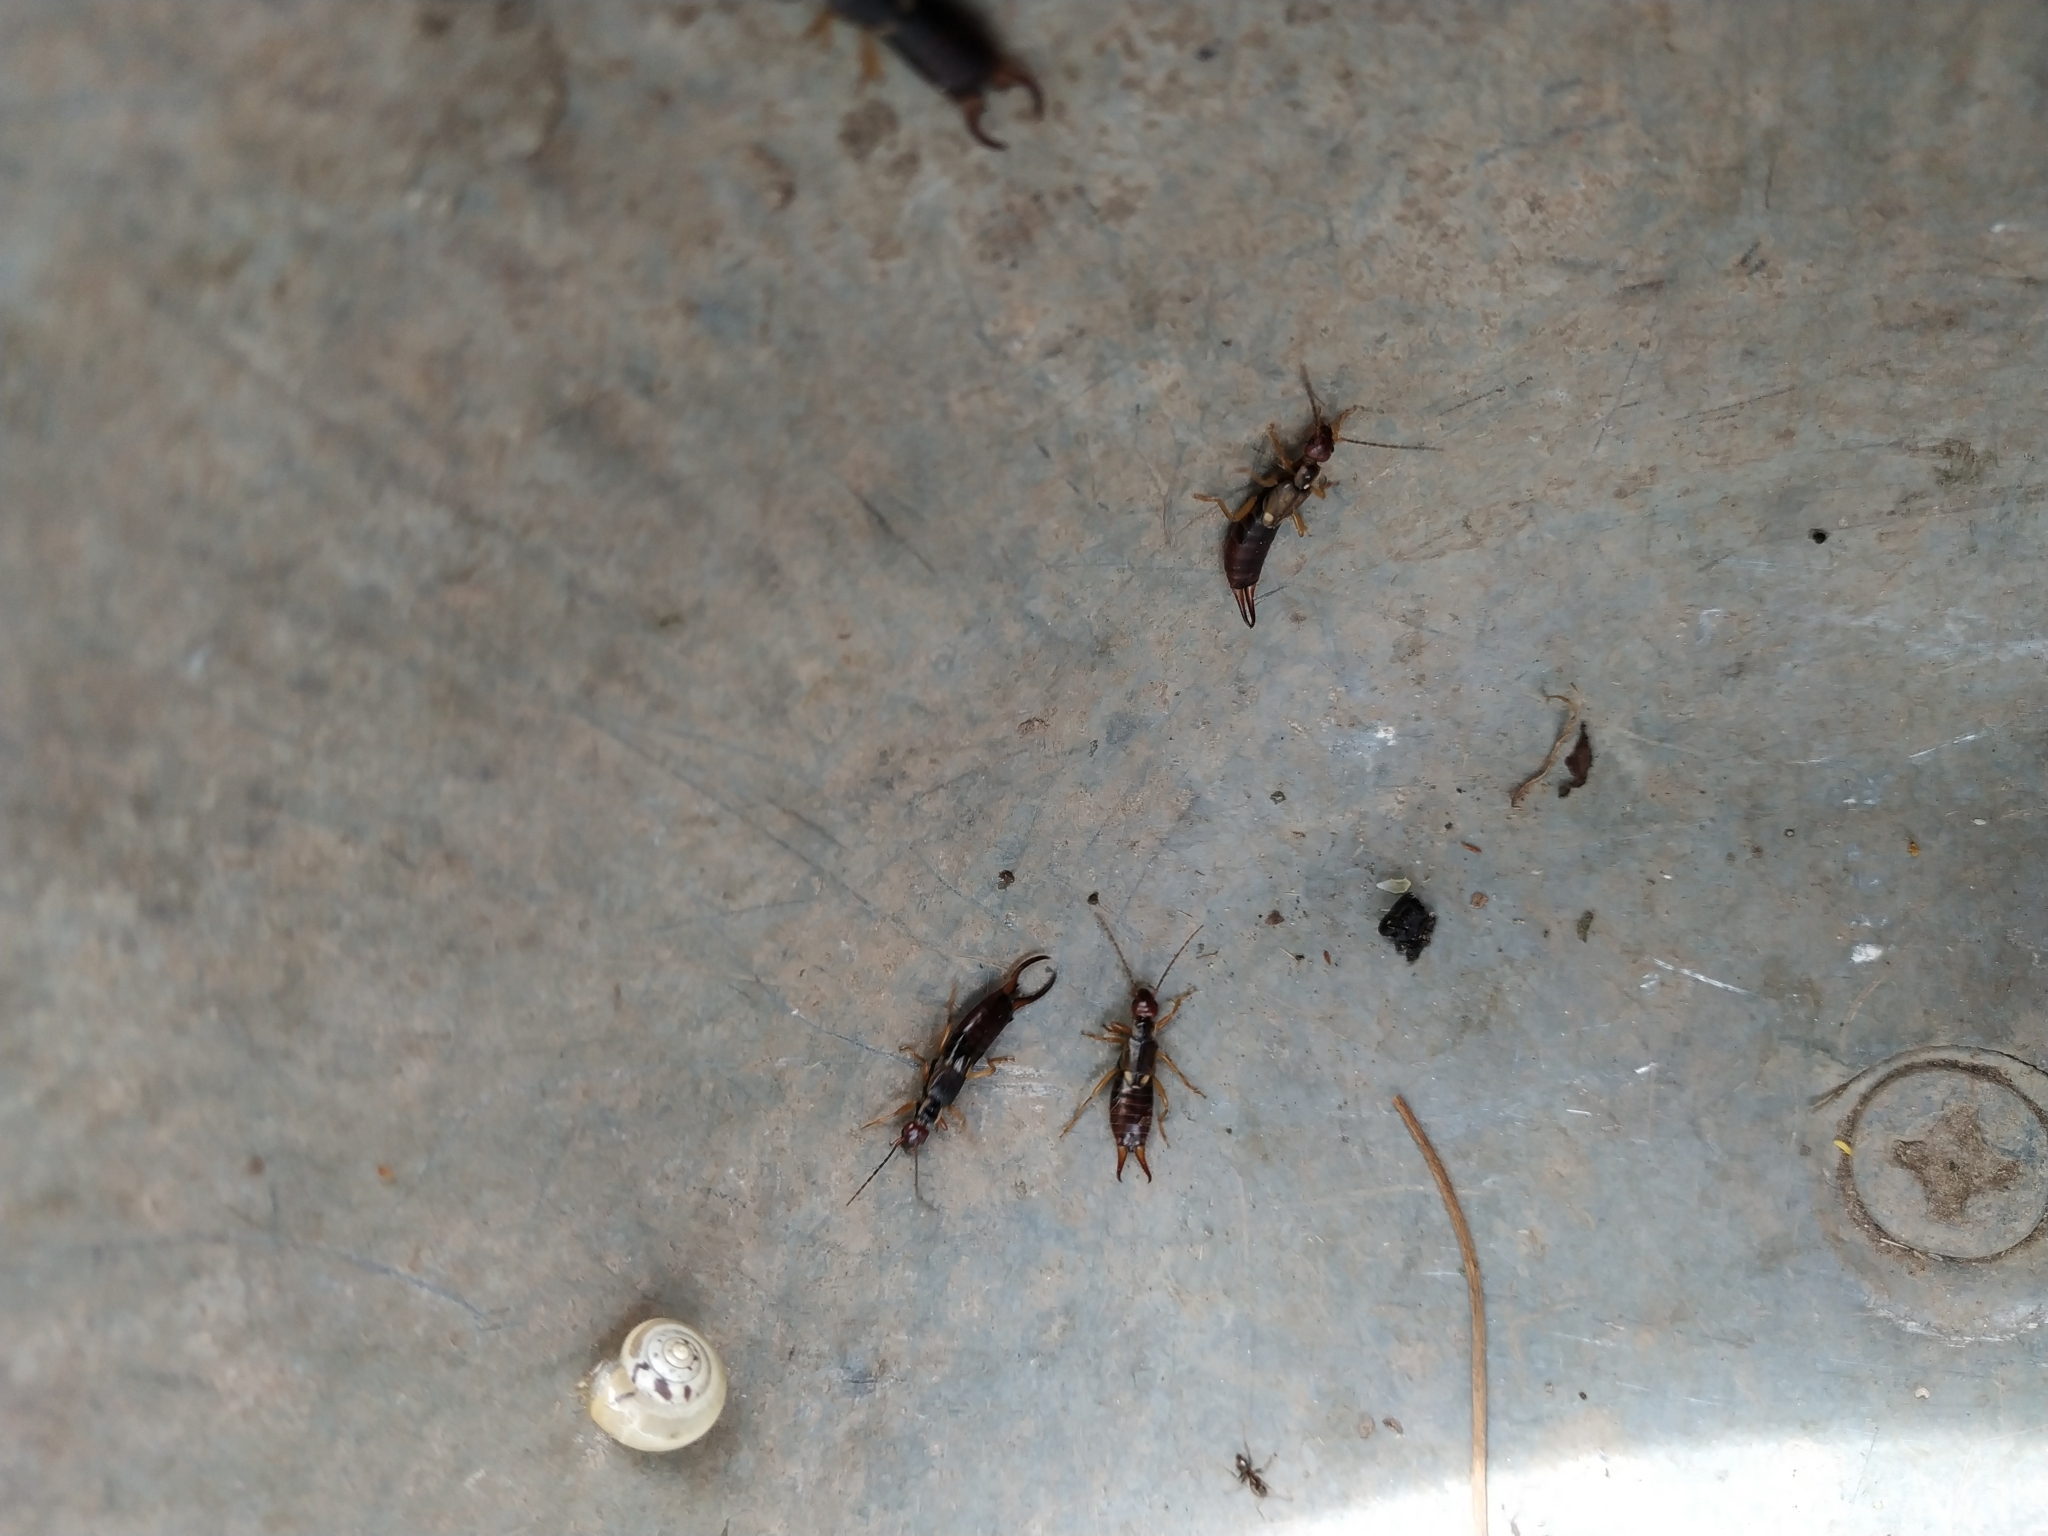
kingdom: Animalia
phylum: Arthropoda
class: Insecta
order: Dermaptera
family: Forficulidae
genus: Forficula
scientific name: Forficula
